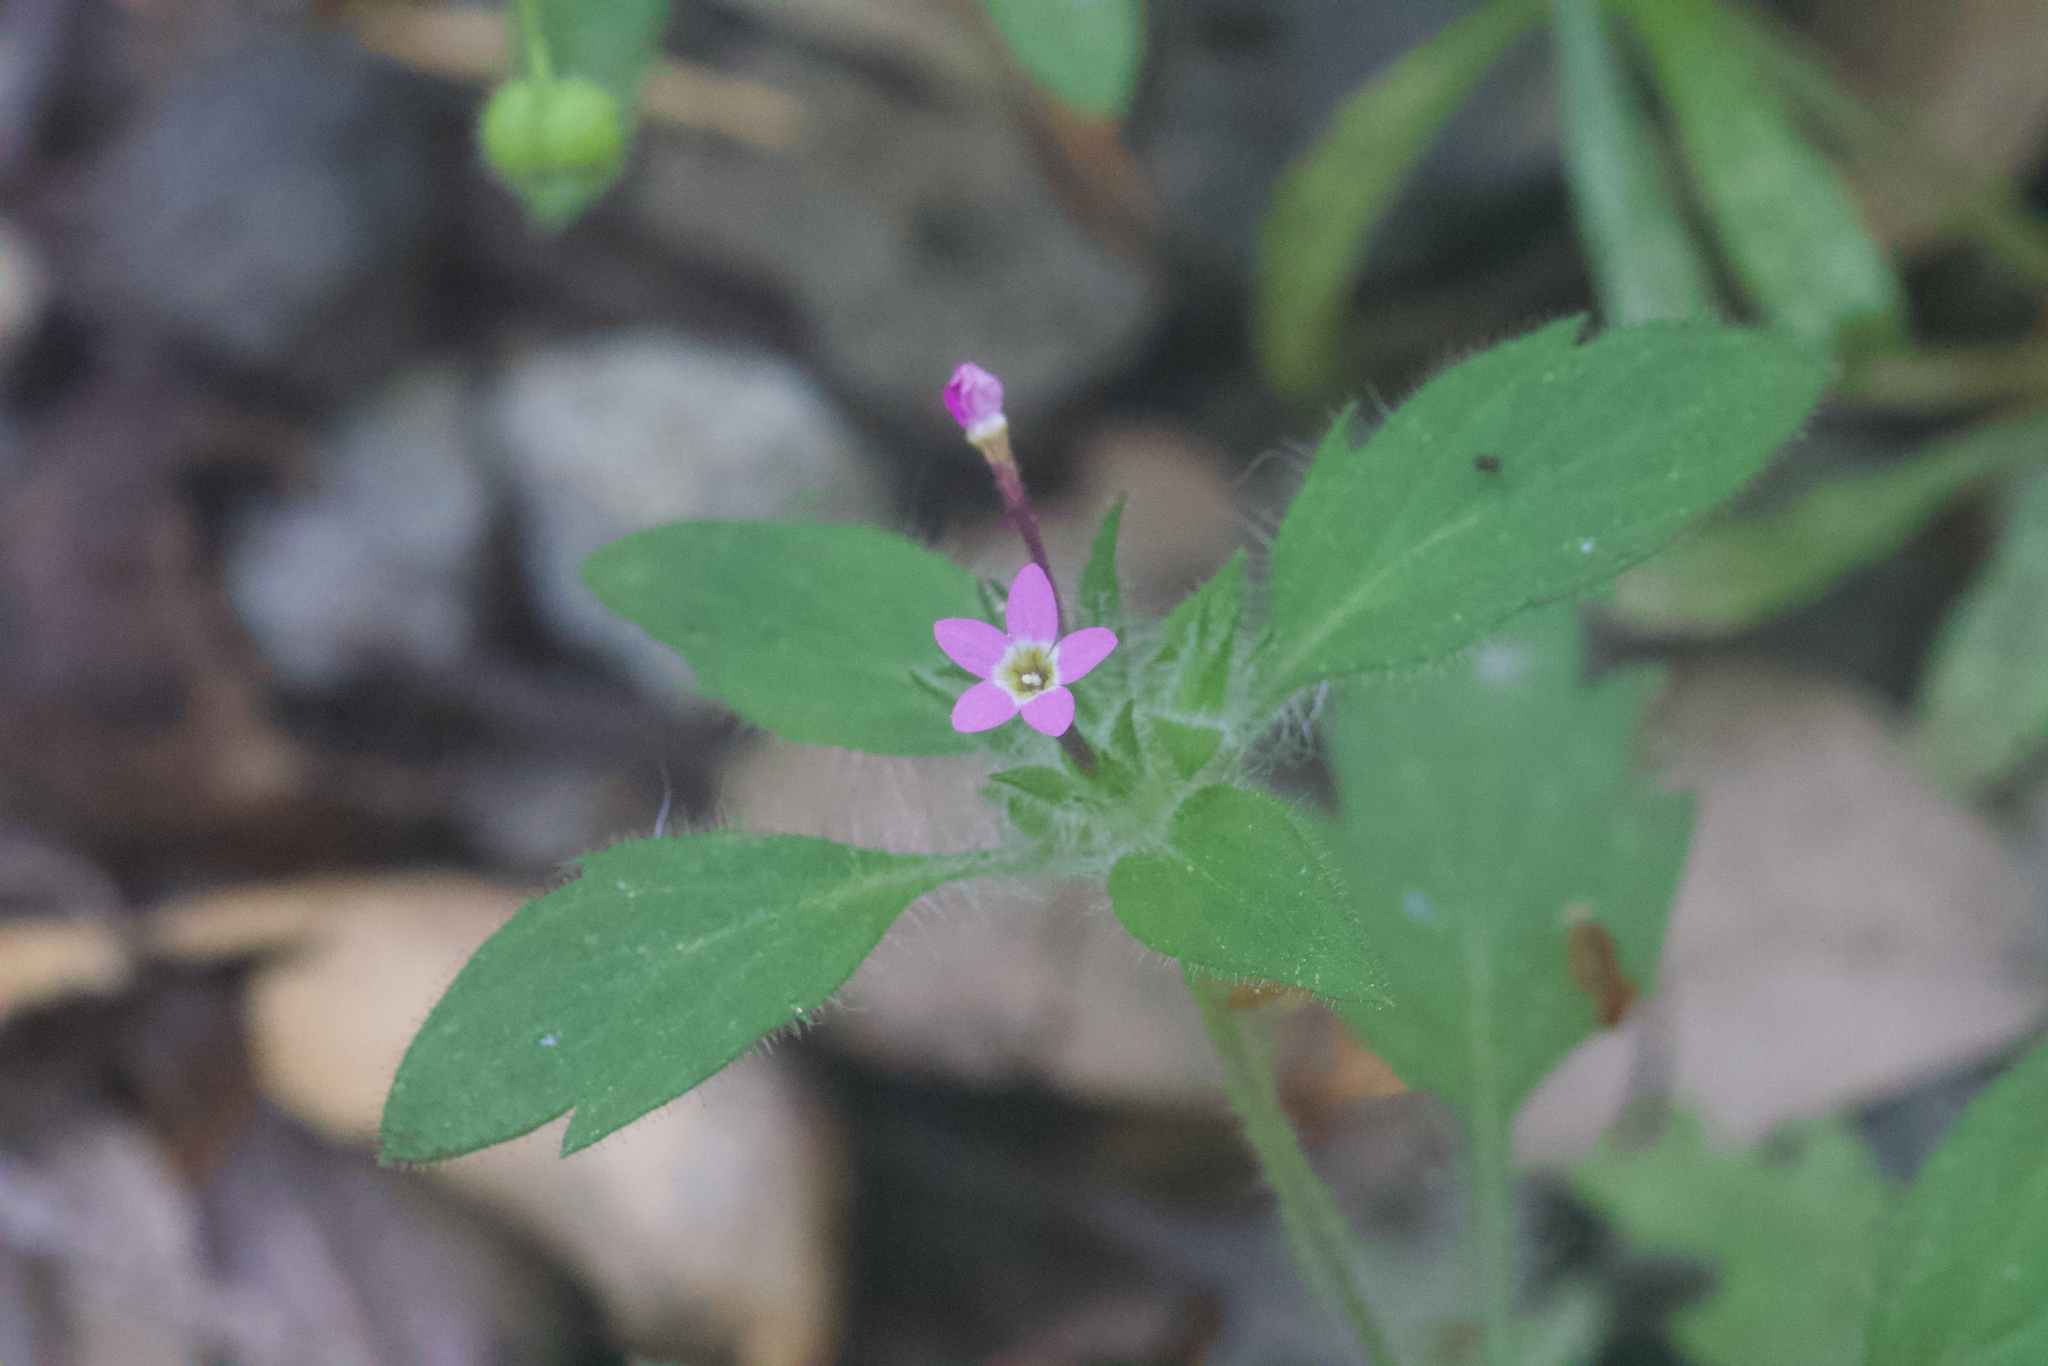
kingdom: Plantae
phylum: Tracheophyta
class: Magnoliopsida
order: Ericales
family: Polemoniaceae
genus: Collomia
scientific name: Collomia heterophylla
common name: Variable-leaved collomia
